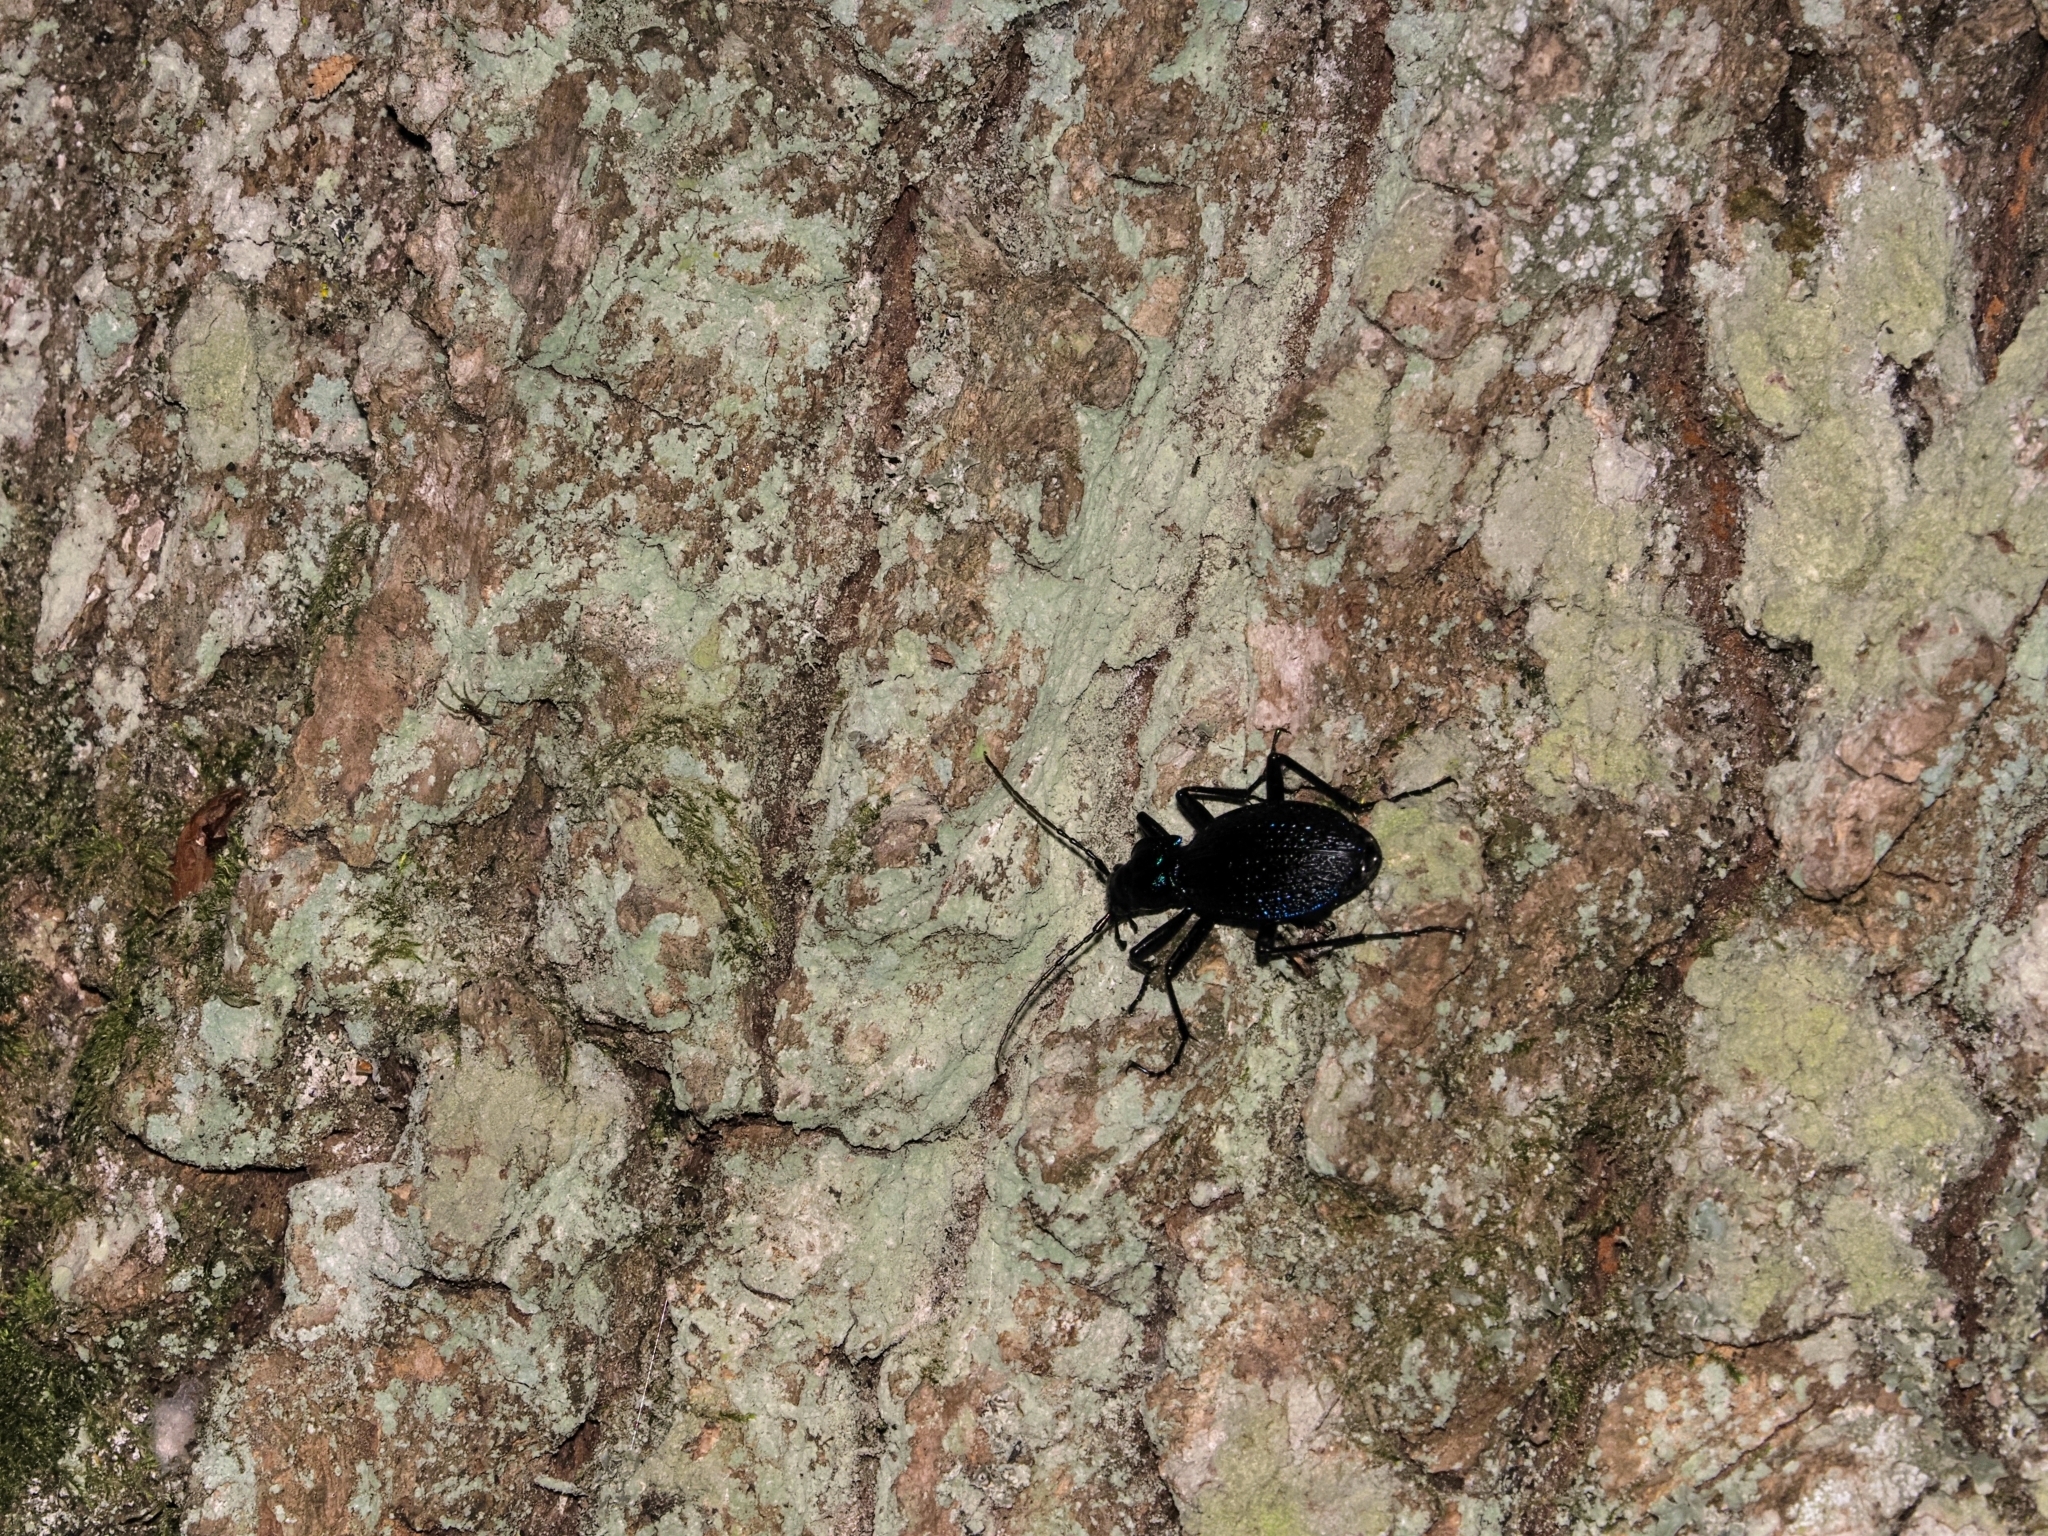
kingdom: Animalia
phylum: Arthropoda
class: Insecta
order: Coleoptera
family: Carabidae
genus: Carabus
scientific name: Carabus intricatus
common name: Blue ground beetle
